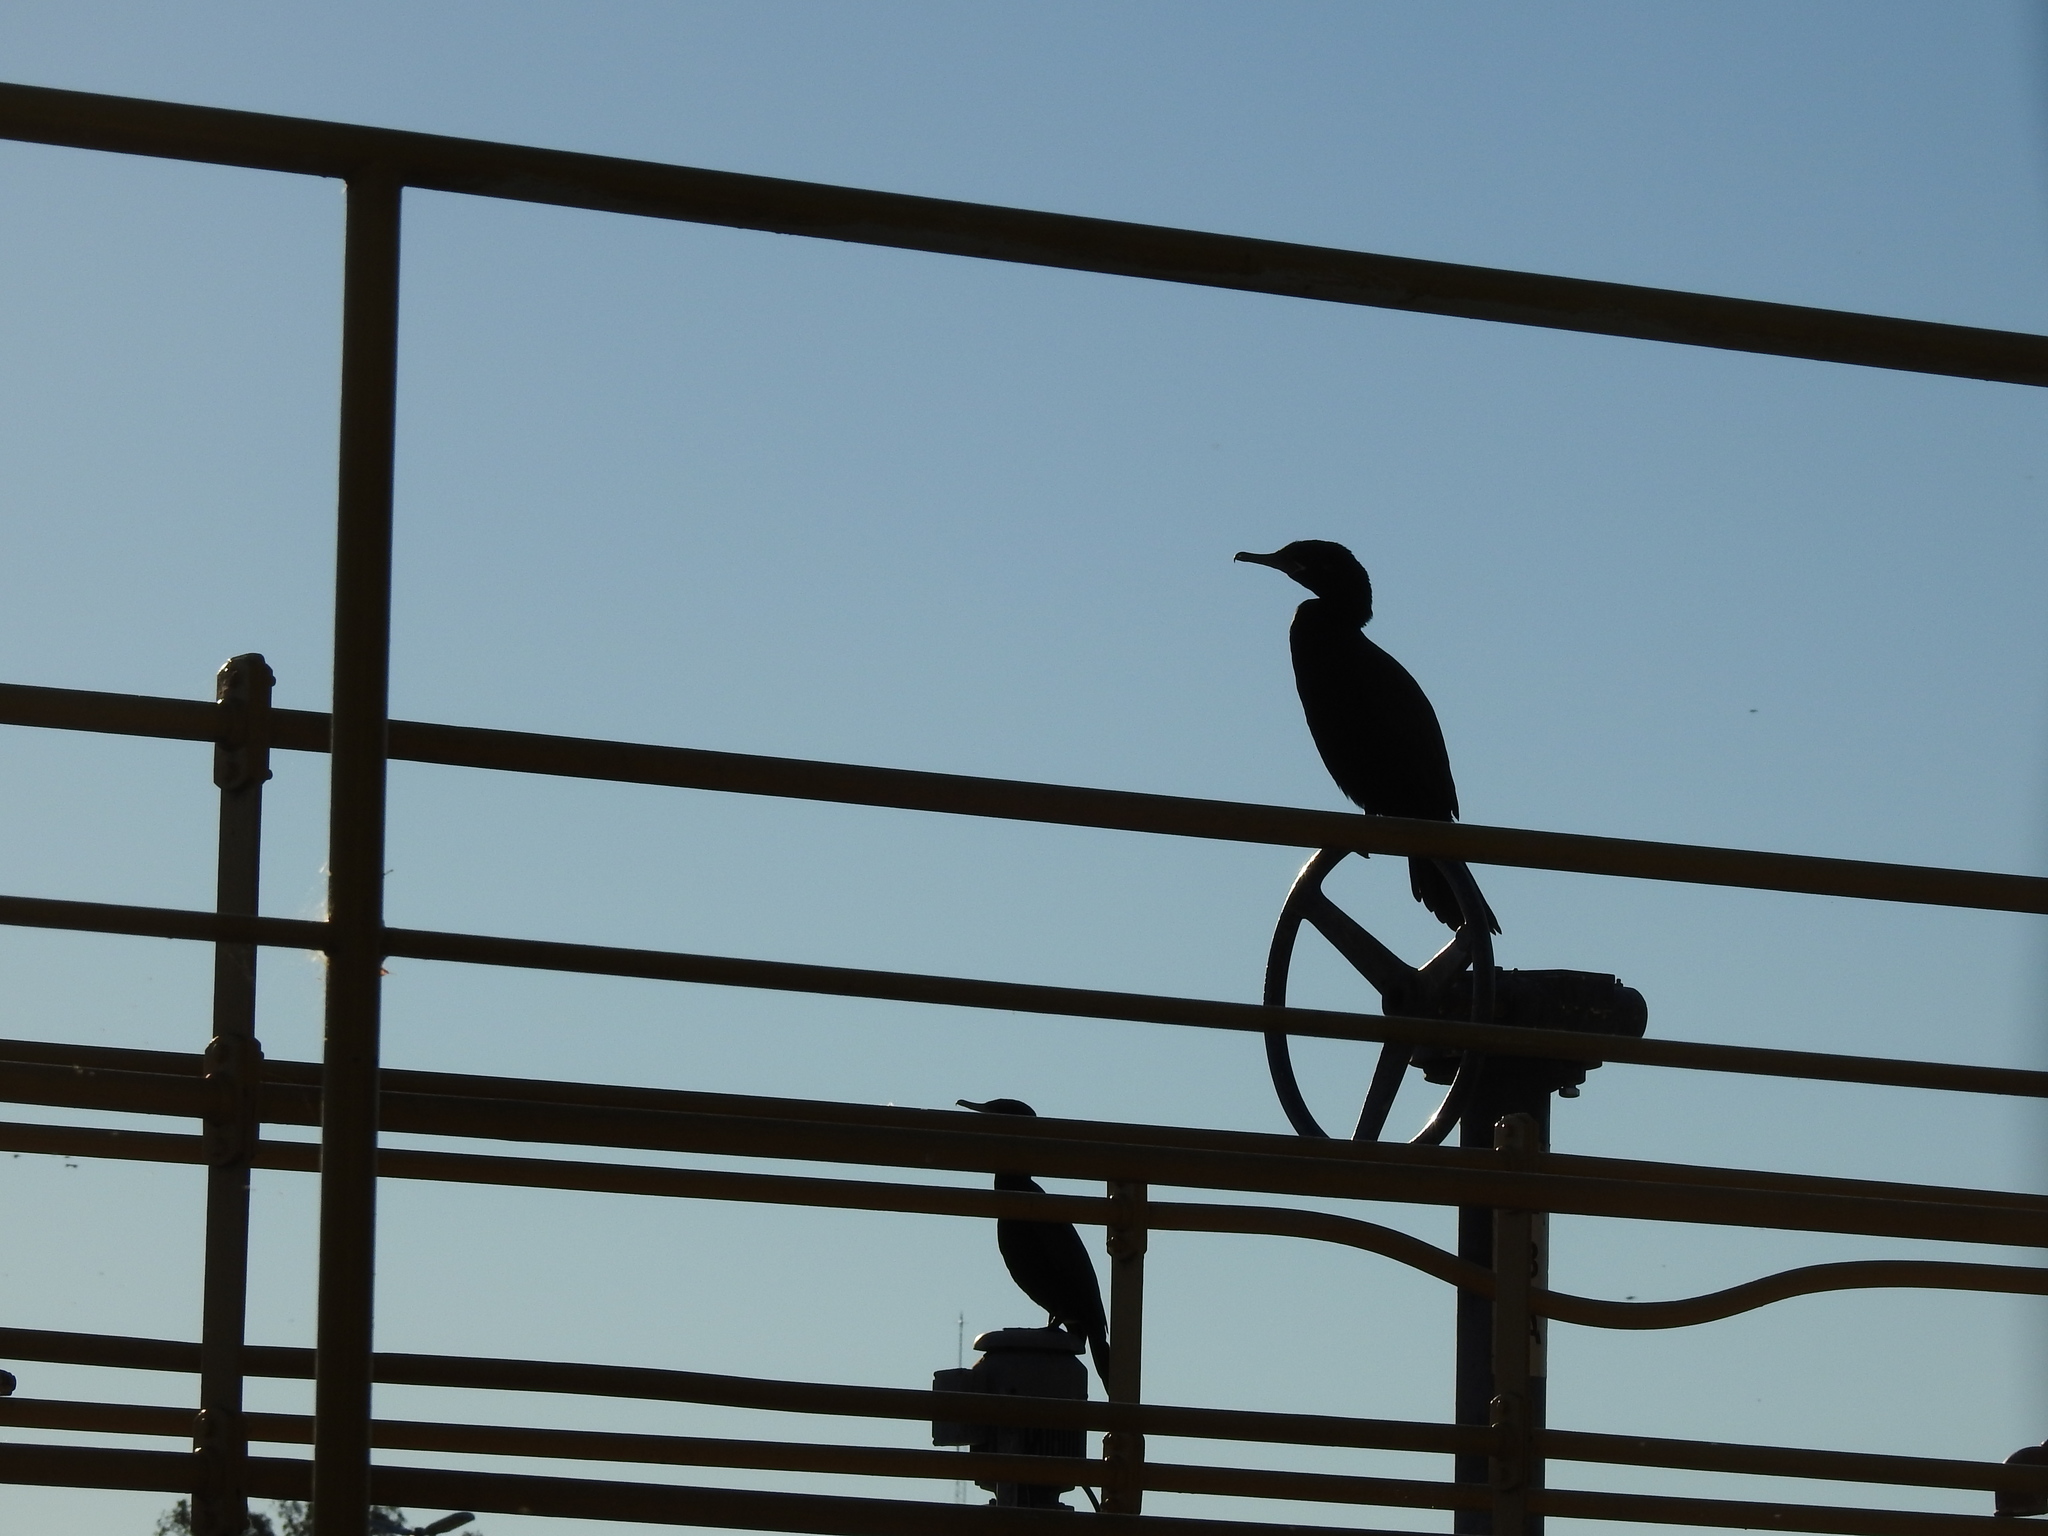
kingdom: Animalia
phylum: Chordata
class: Aves
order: Suliformes
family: Phalacrocoracidae
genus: Phalacrocorax
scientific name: Phalacrocorax brasilianus
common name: Neotropic cormorant
